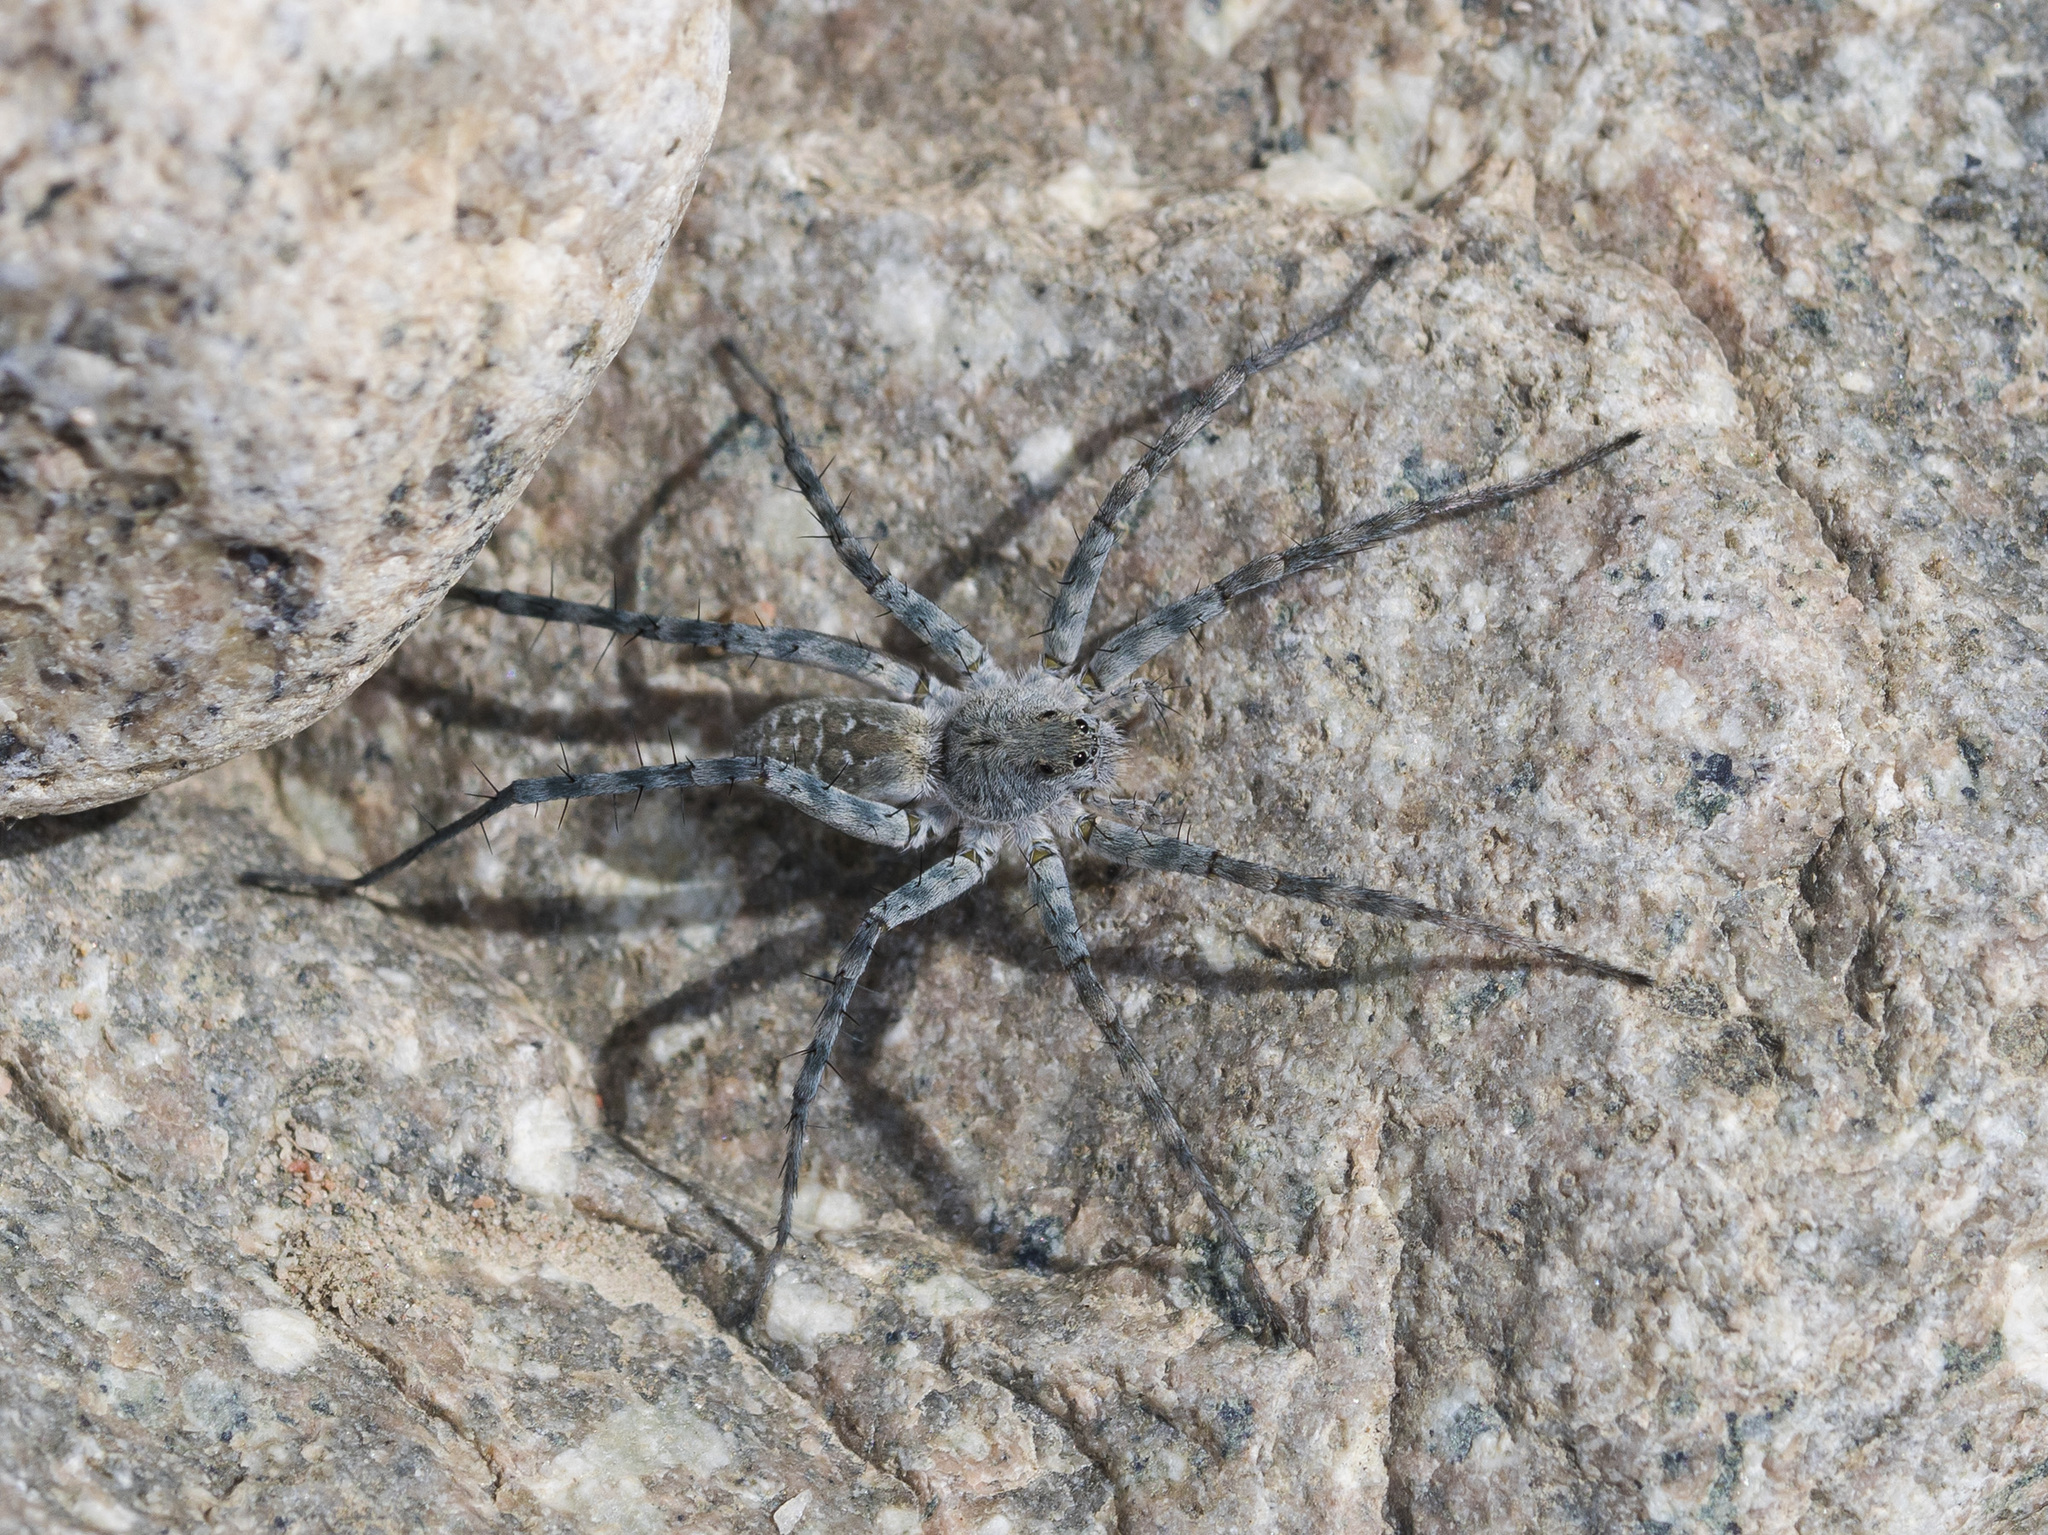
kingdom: Animalia
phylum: Arthropoda
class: Arachnida
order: Araneae
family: Lycosidae
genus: Pardosa
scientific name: Pardosa falcata
